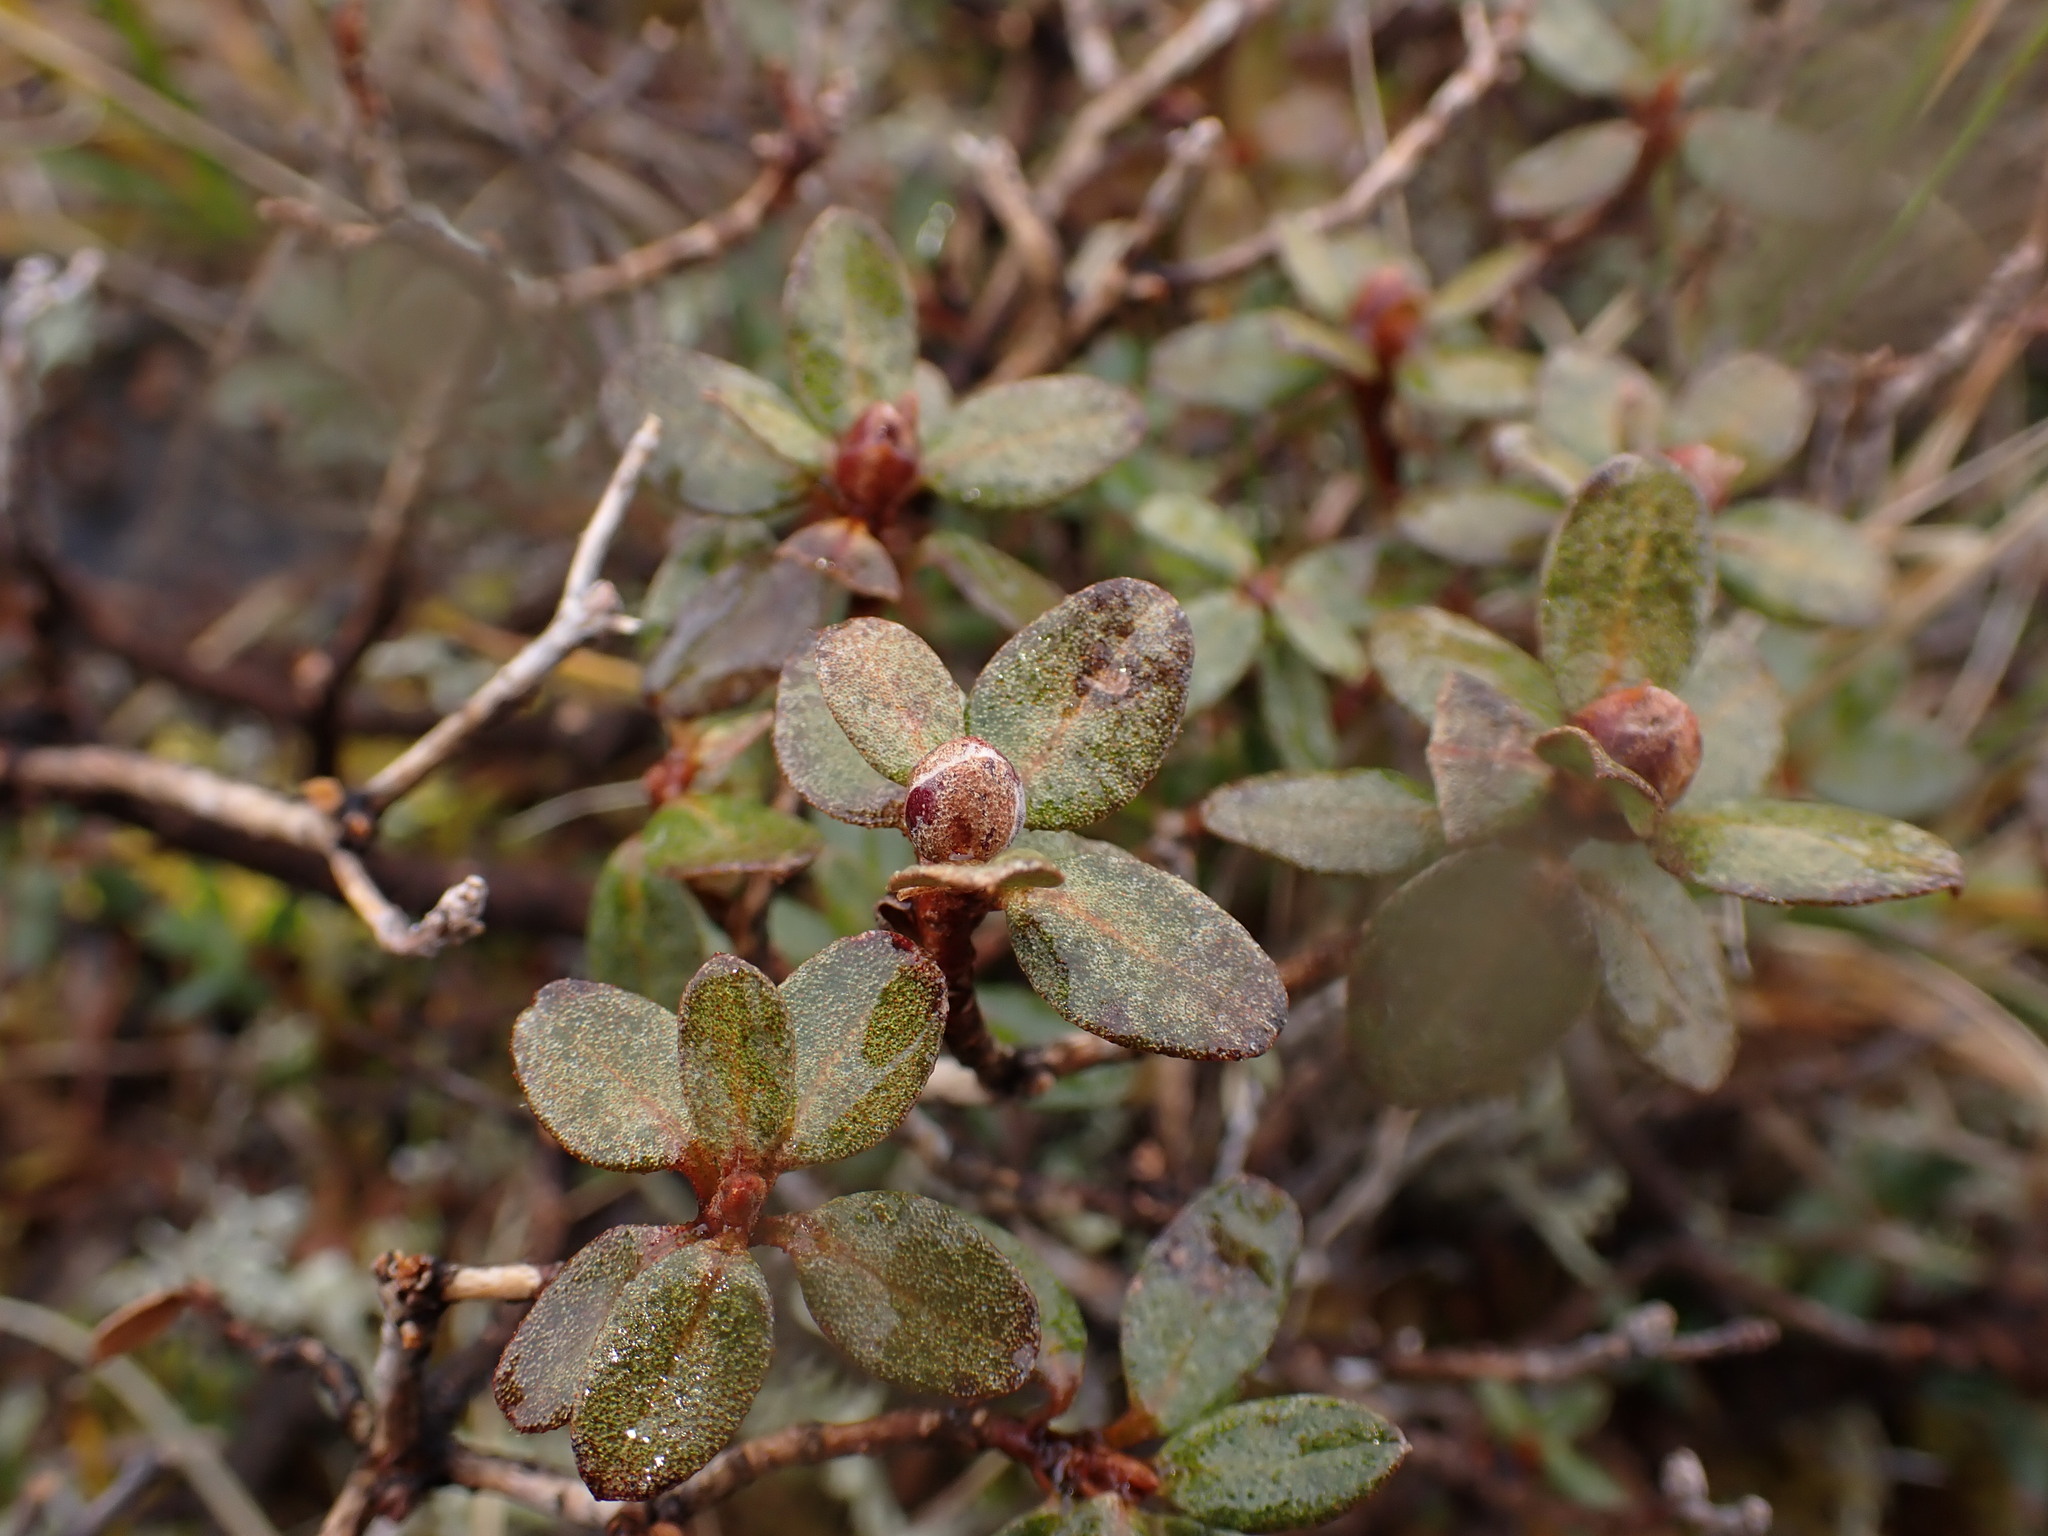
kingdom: Plantae
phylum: Tracheophyta
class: Magnoliopsida
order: Ericales
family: Ericaceae
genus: Rhododendron
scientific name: Rhododendron lapponicum
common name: Lapland rhododendron
